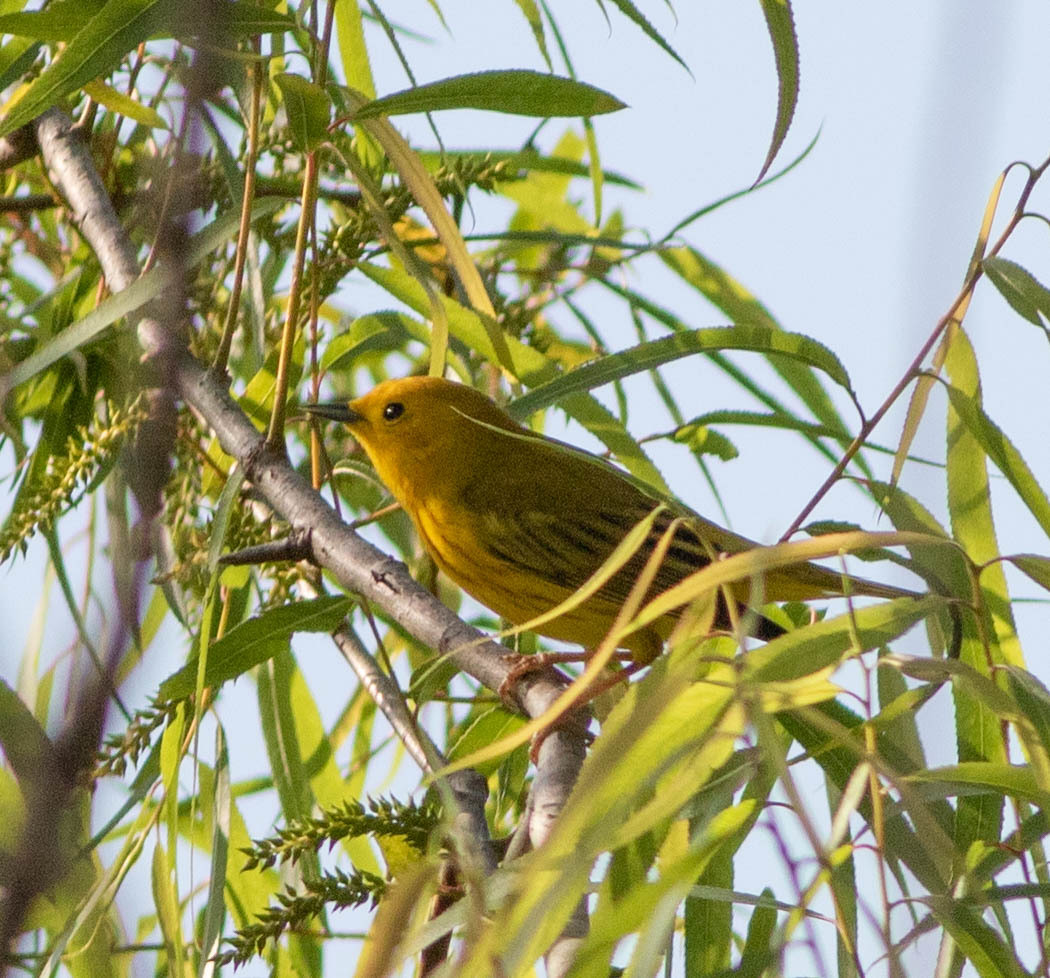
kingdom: Animalia
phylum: Chordata
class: Aves
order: Passeriformes
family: Parulidae
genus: Setophaga
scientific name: Setophaga petechia
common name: Yellow warbler
